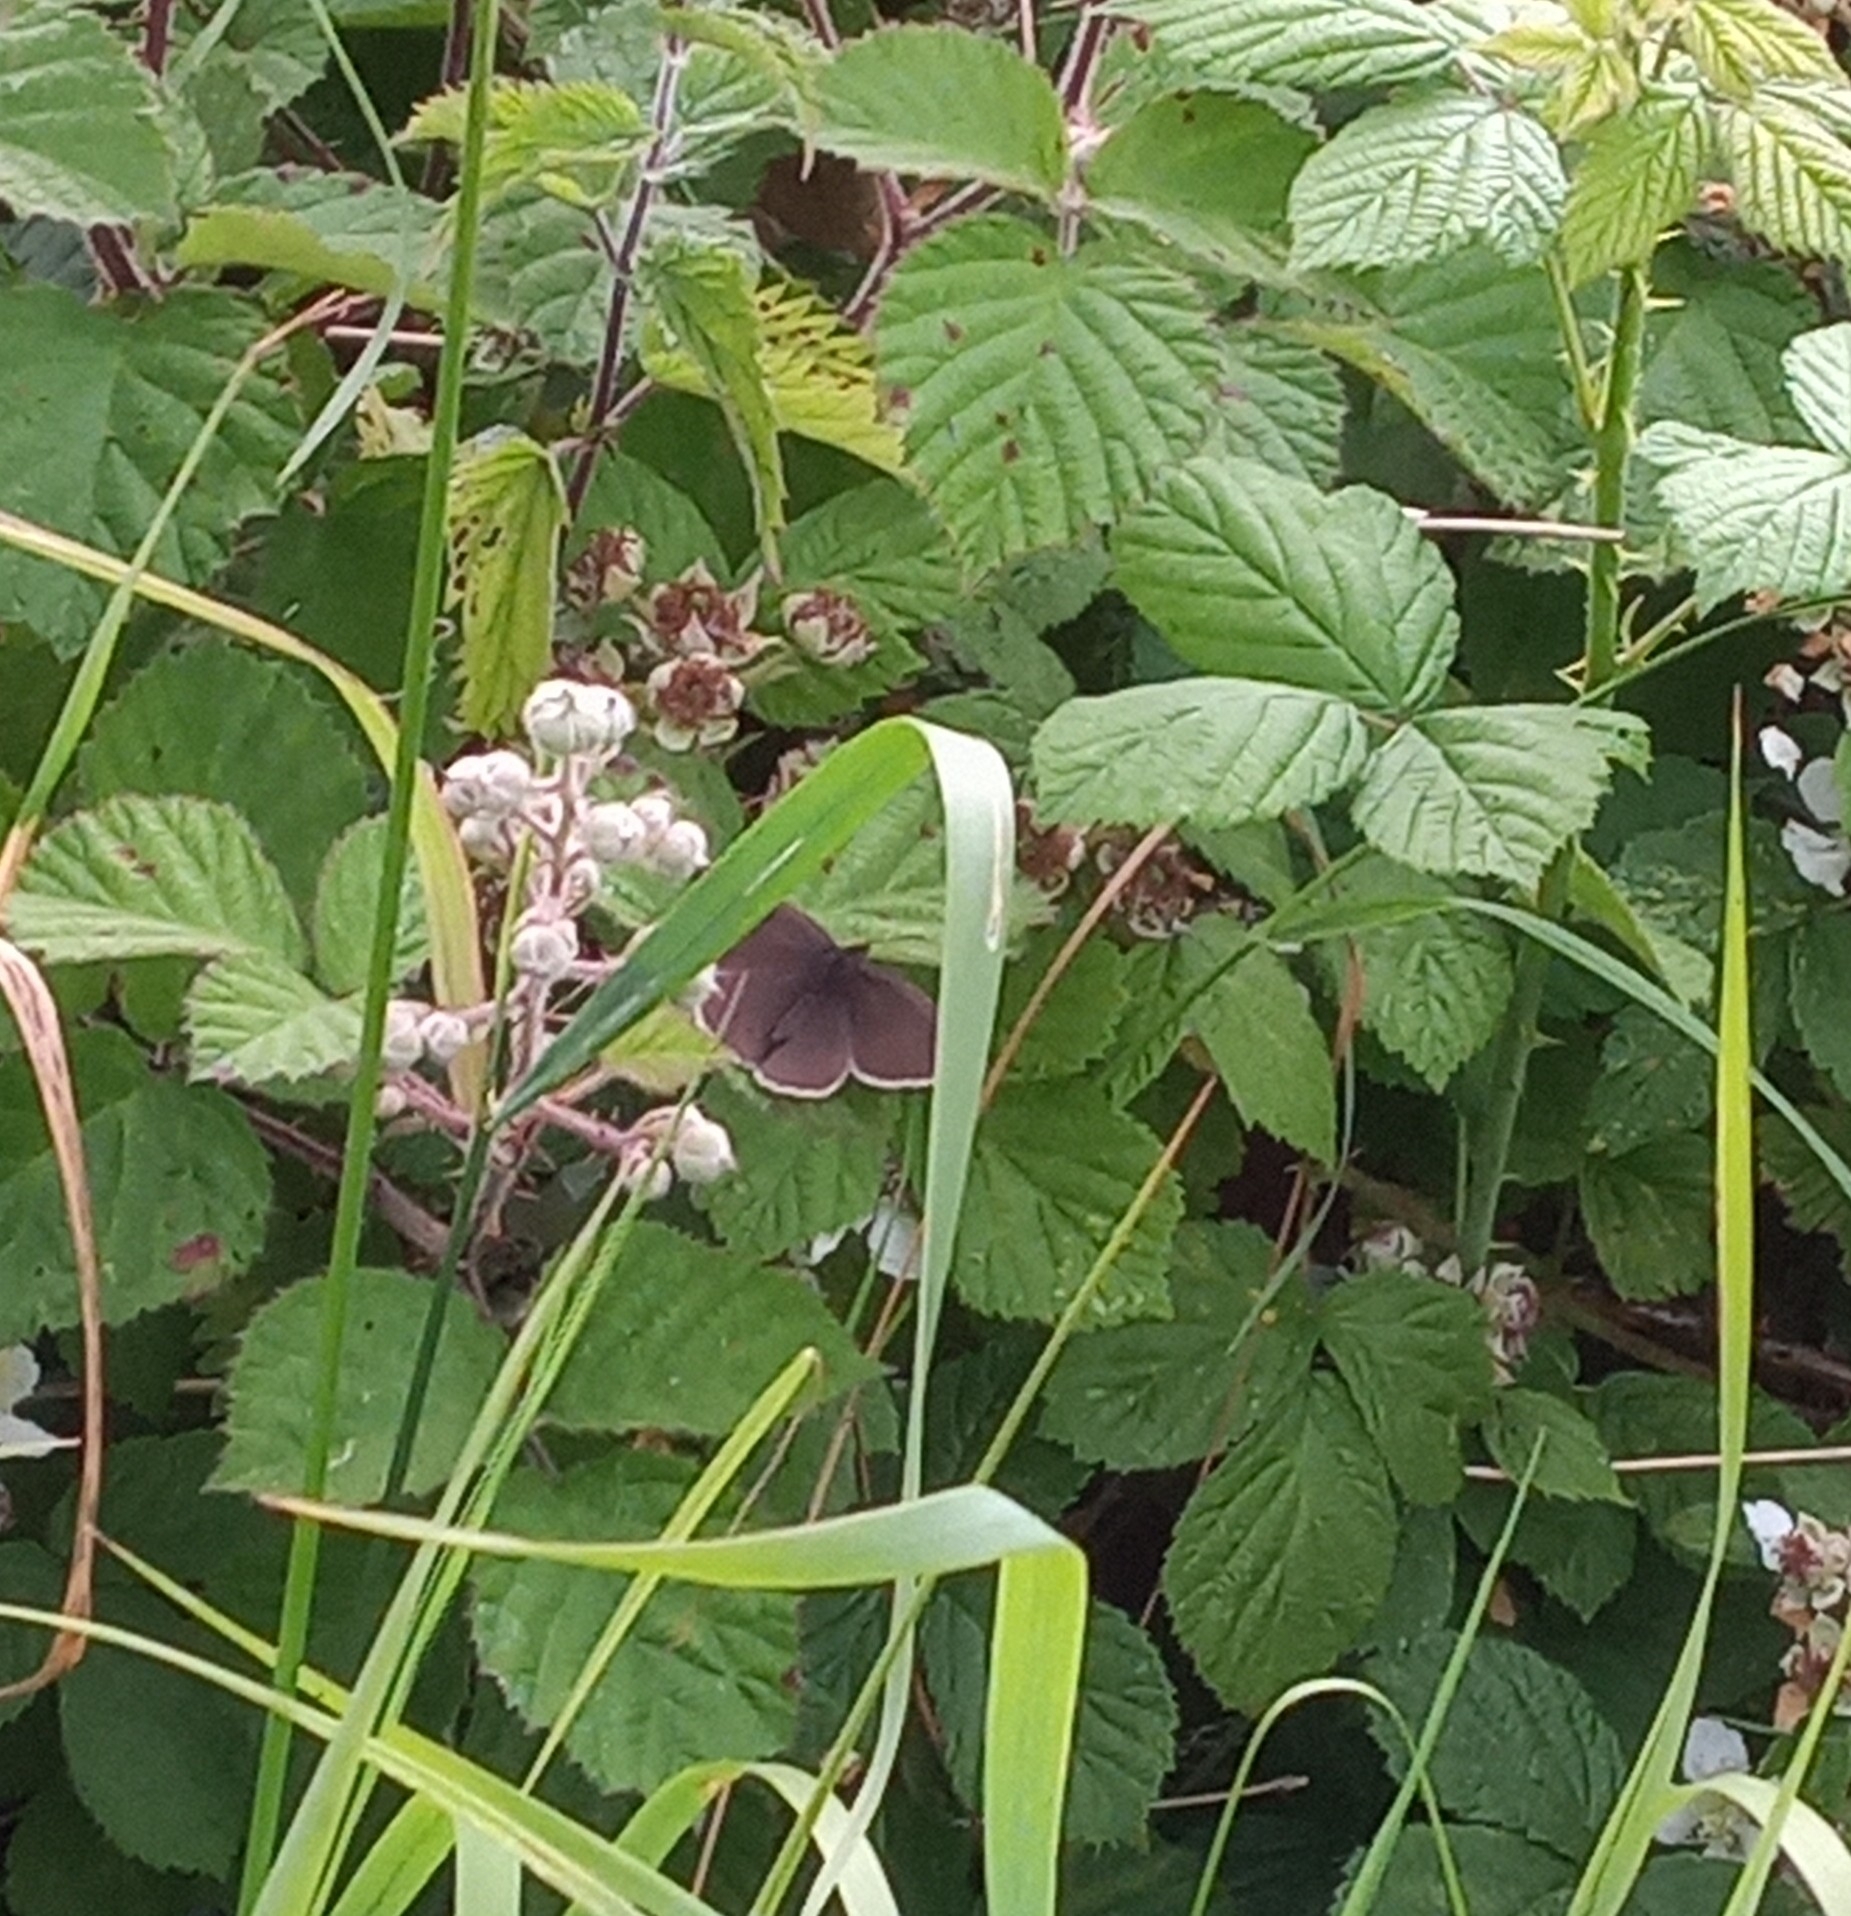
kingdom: Animalia
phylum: Arthropoda
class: Insecta
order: Lepidoptera
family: Nymphalidae
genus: Aphantopus
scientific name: Aphantopus hyperantus
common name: Ringlet
